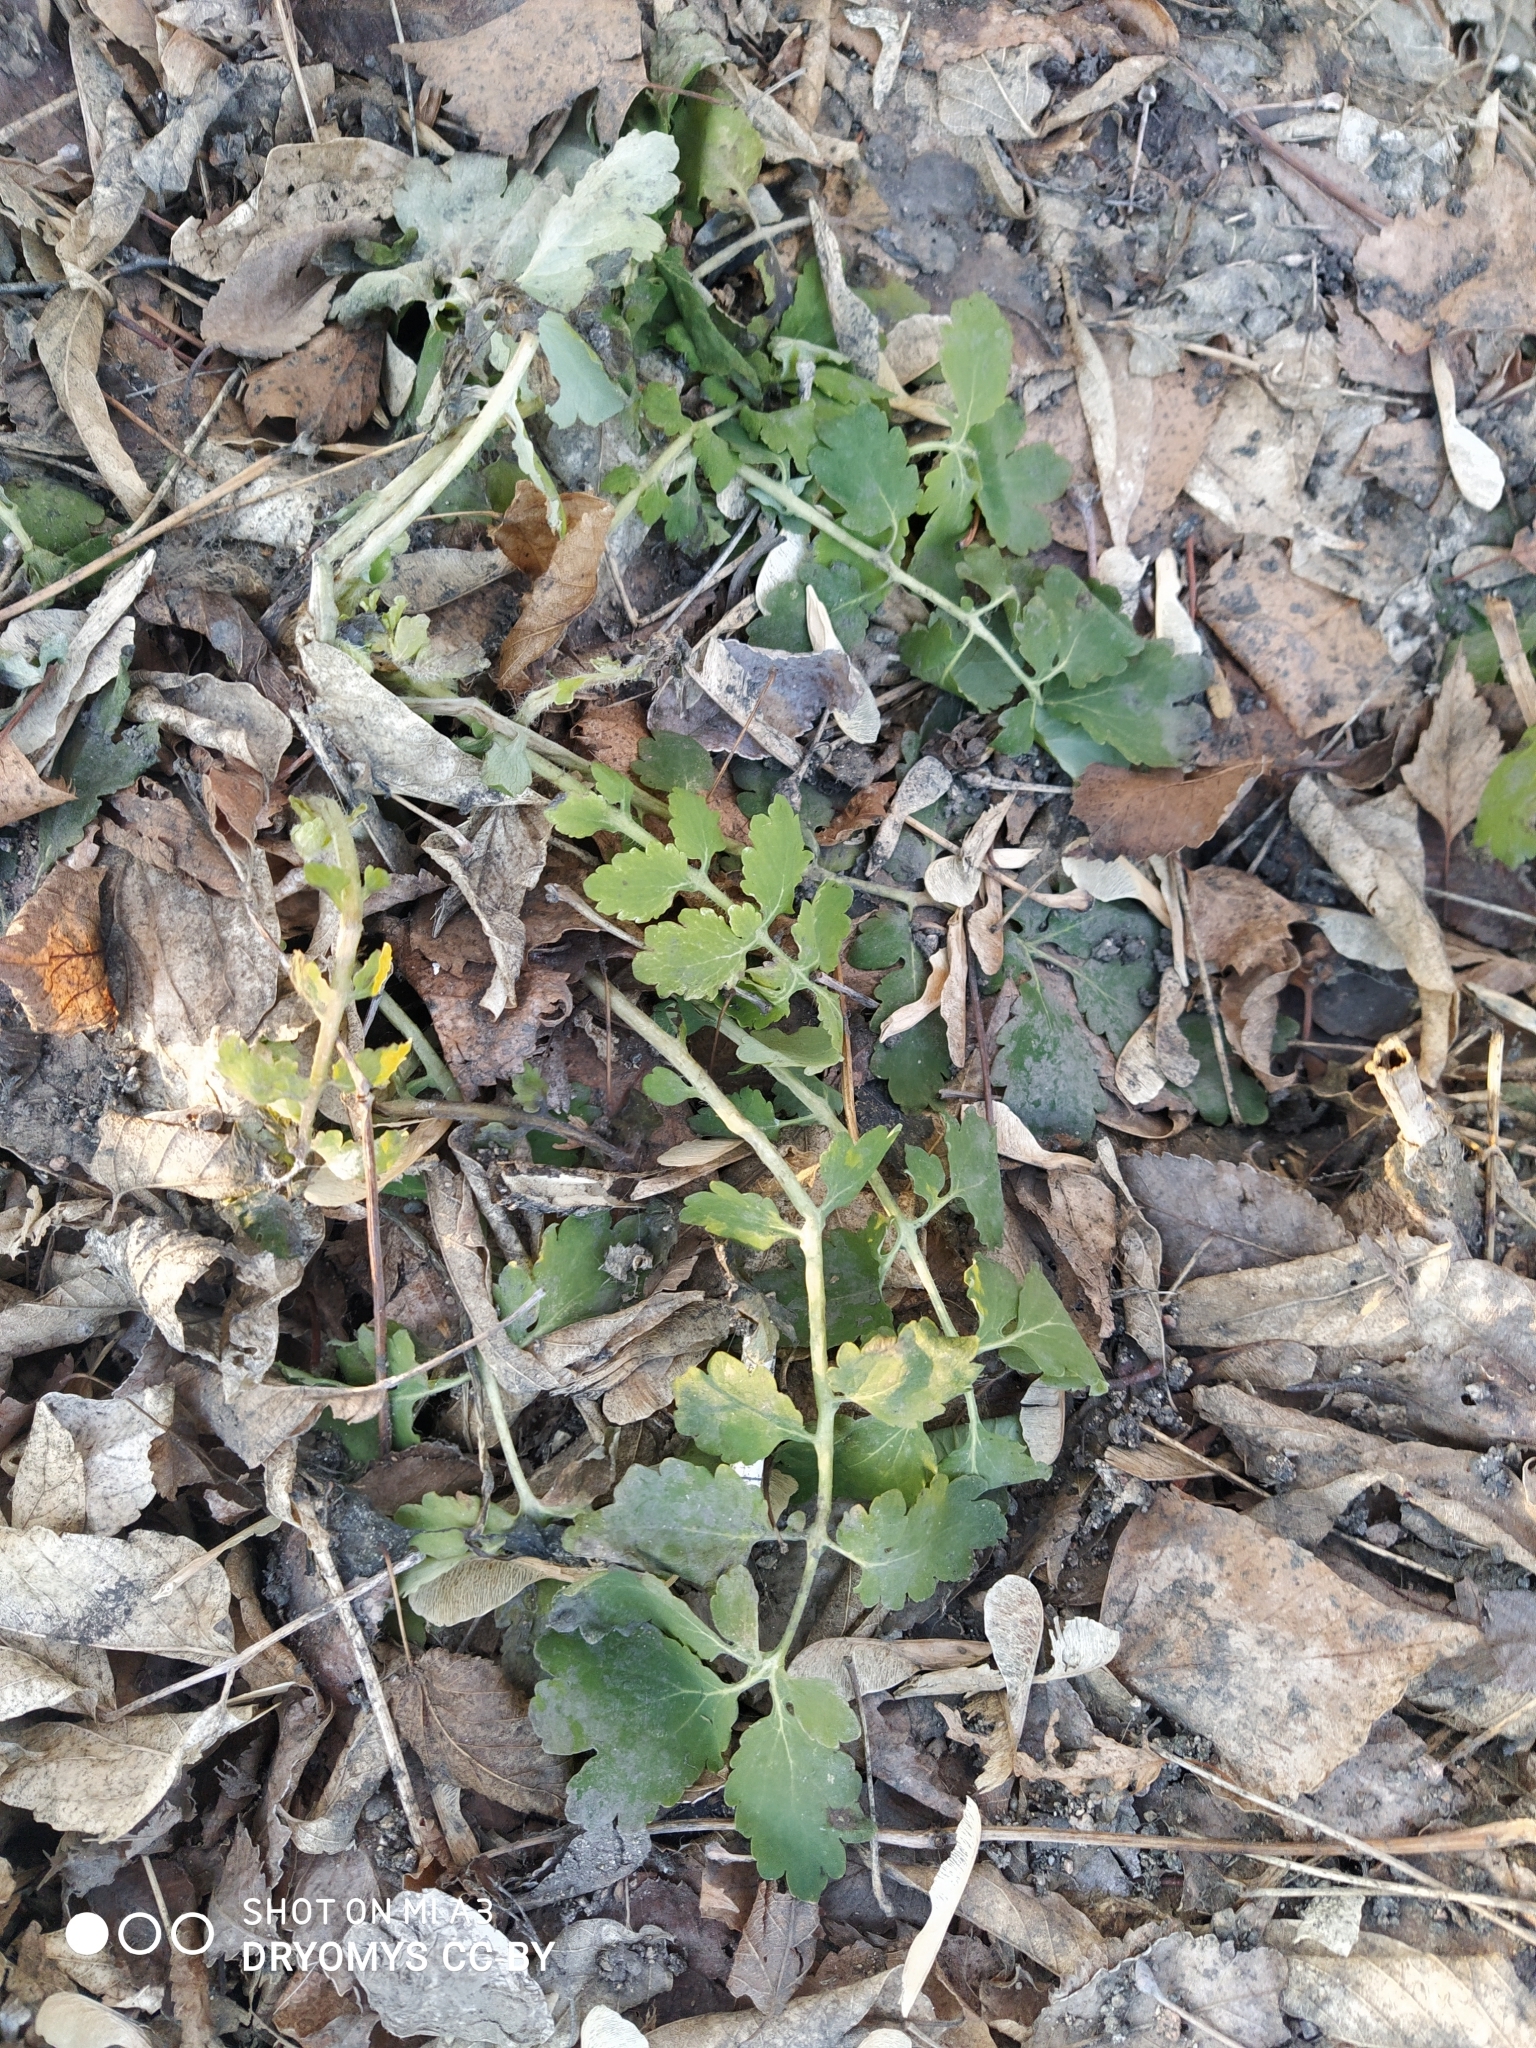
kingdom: Plantae
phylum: Tracheophyta
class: Magnoliopsida
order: Ranunculales
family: Papaveraceae
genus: Chelidonium
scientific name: Chelidonium majus
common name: Greater celandine
